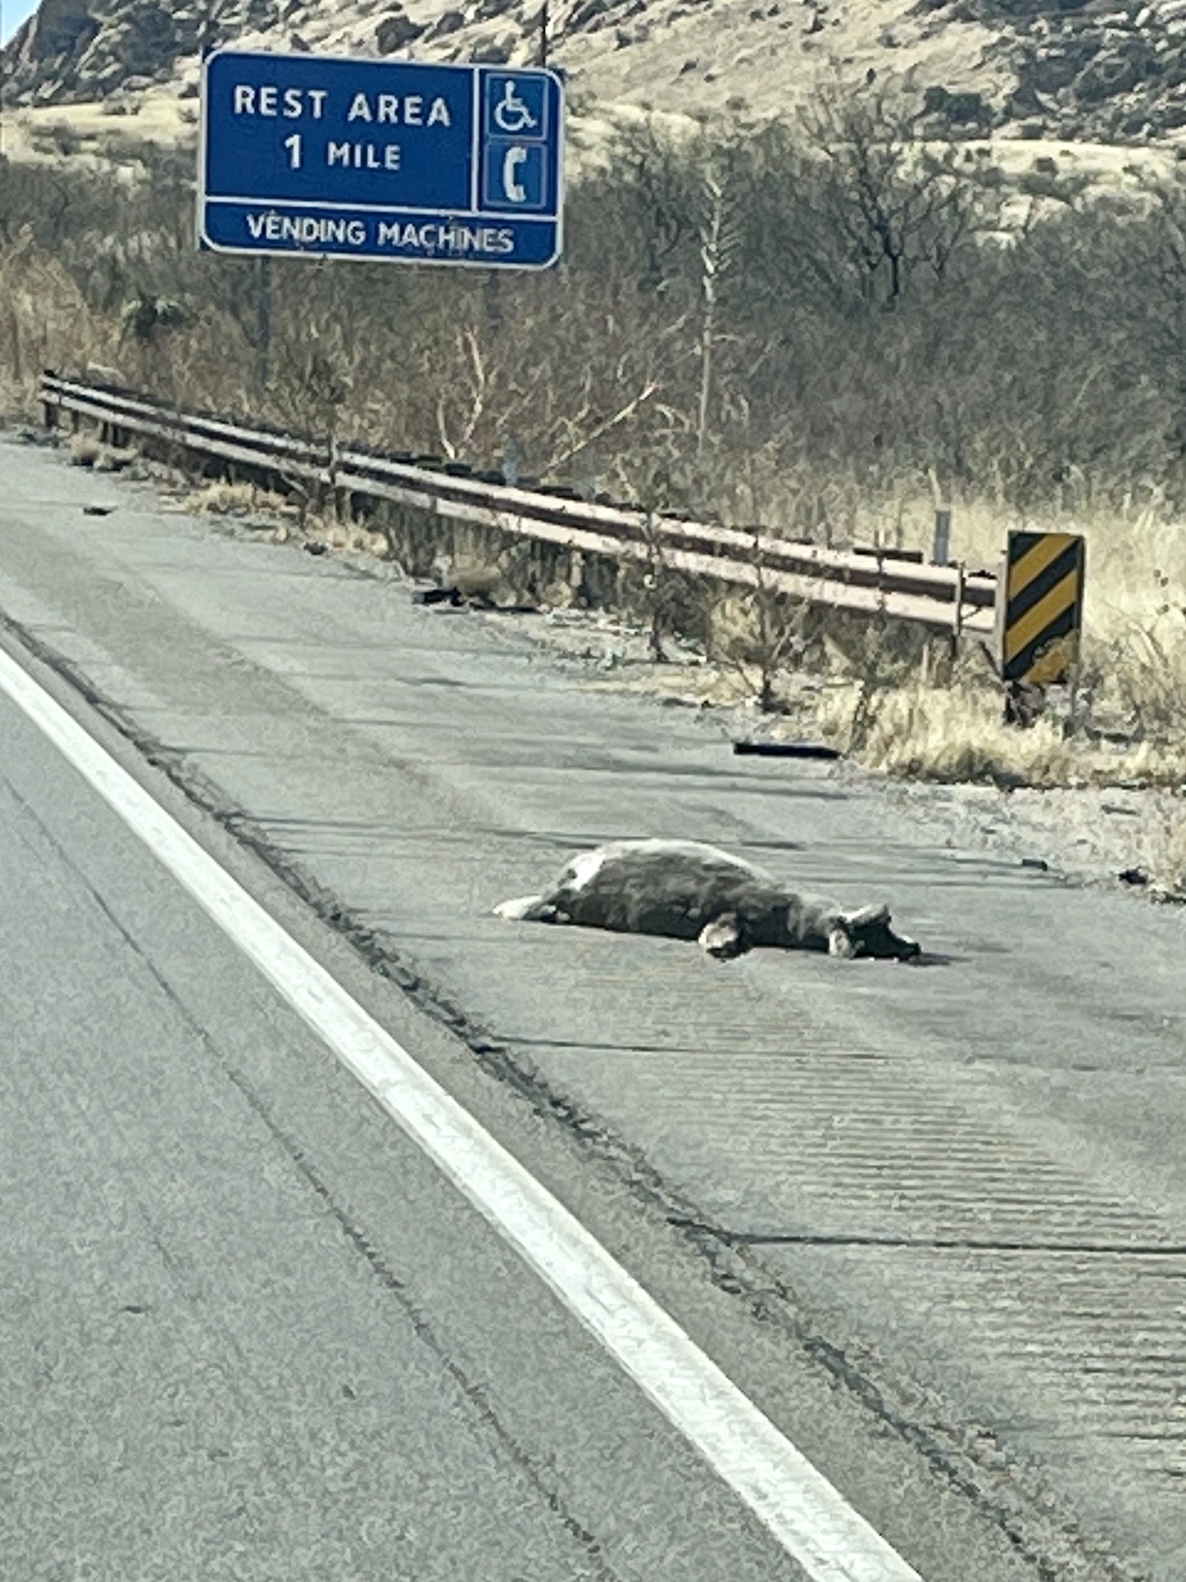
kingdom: Animalia
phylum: Chordata
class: Mammalia
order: Artiodactyla
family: Cervidae
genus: Odocoileus
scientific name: Odocoileus hemionus
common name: Mule deer
